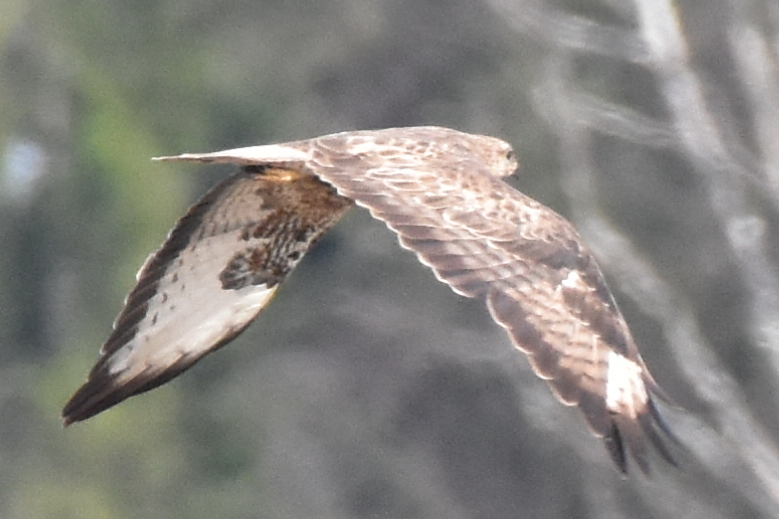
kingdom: Animalia
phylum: Chordata
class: Aves
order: Accipitriformes
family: Accipitridae
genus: Buteo
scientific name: Buteo buteo
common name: Common buzzard
